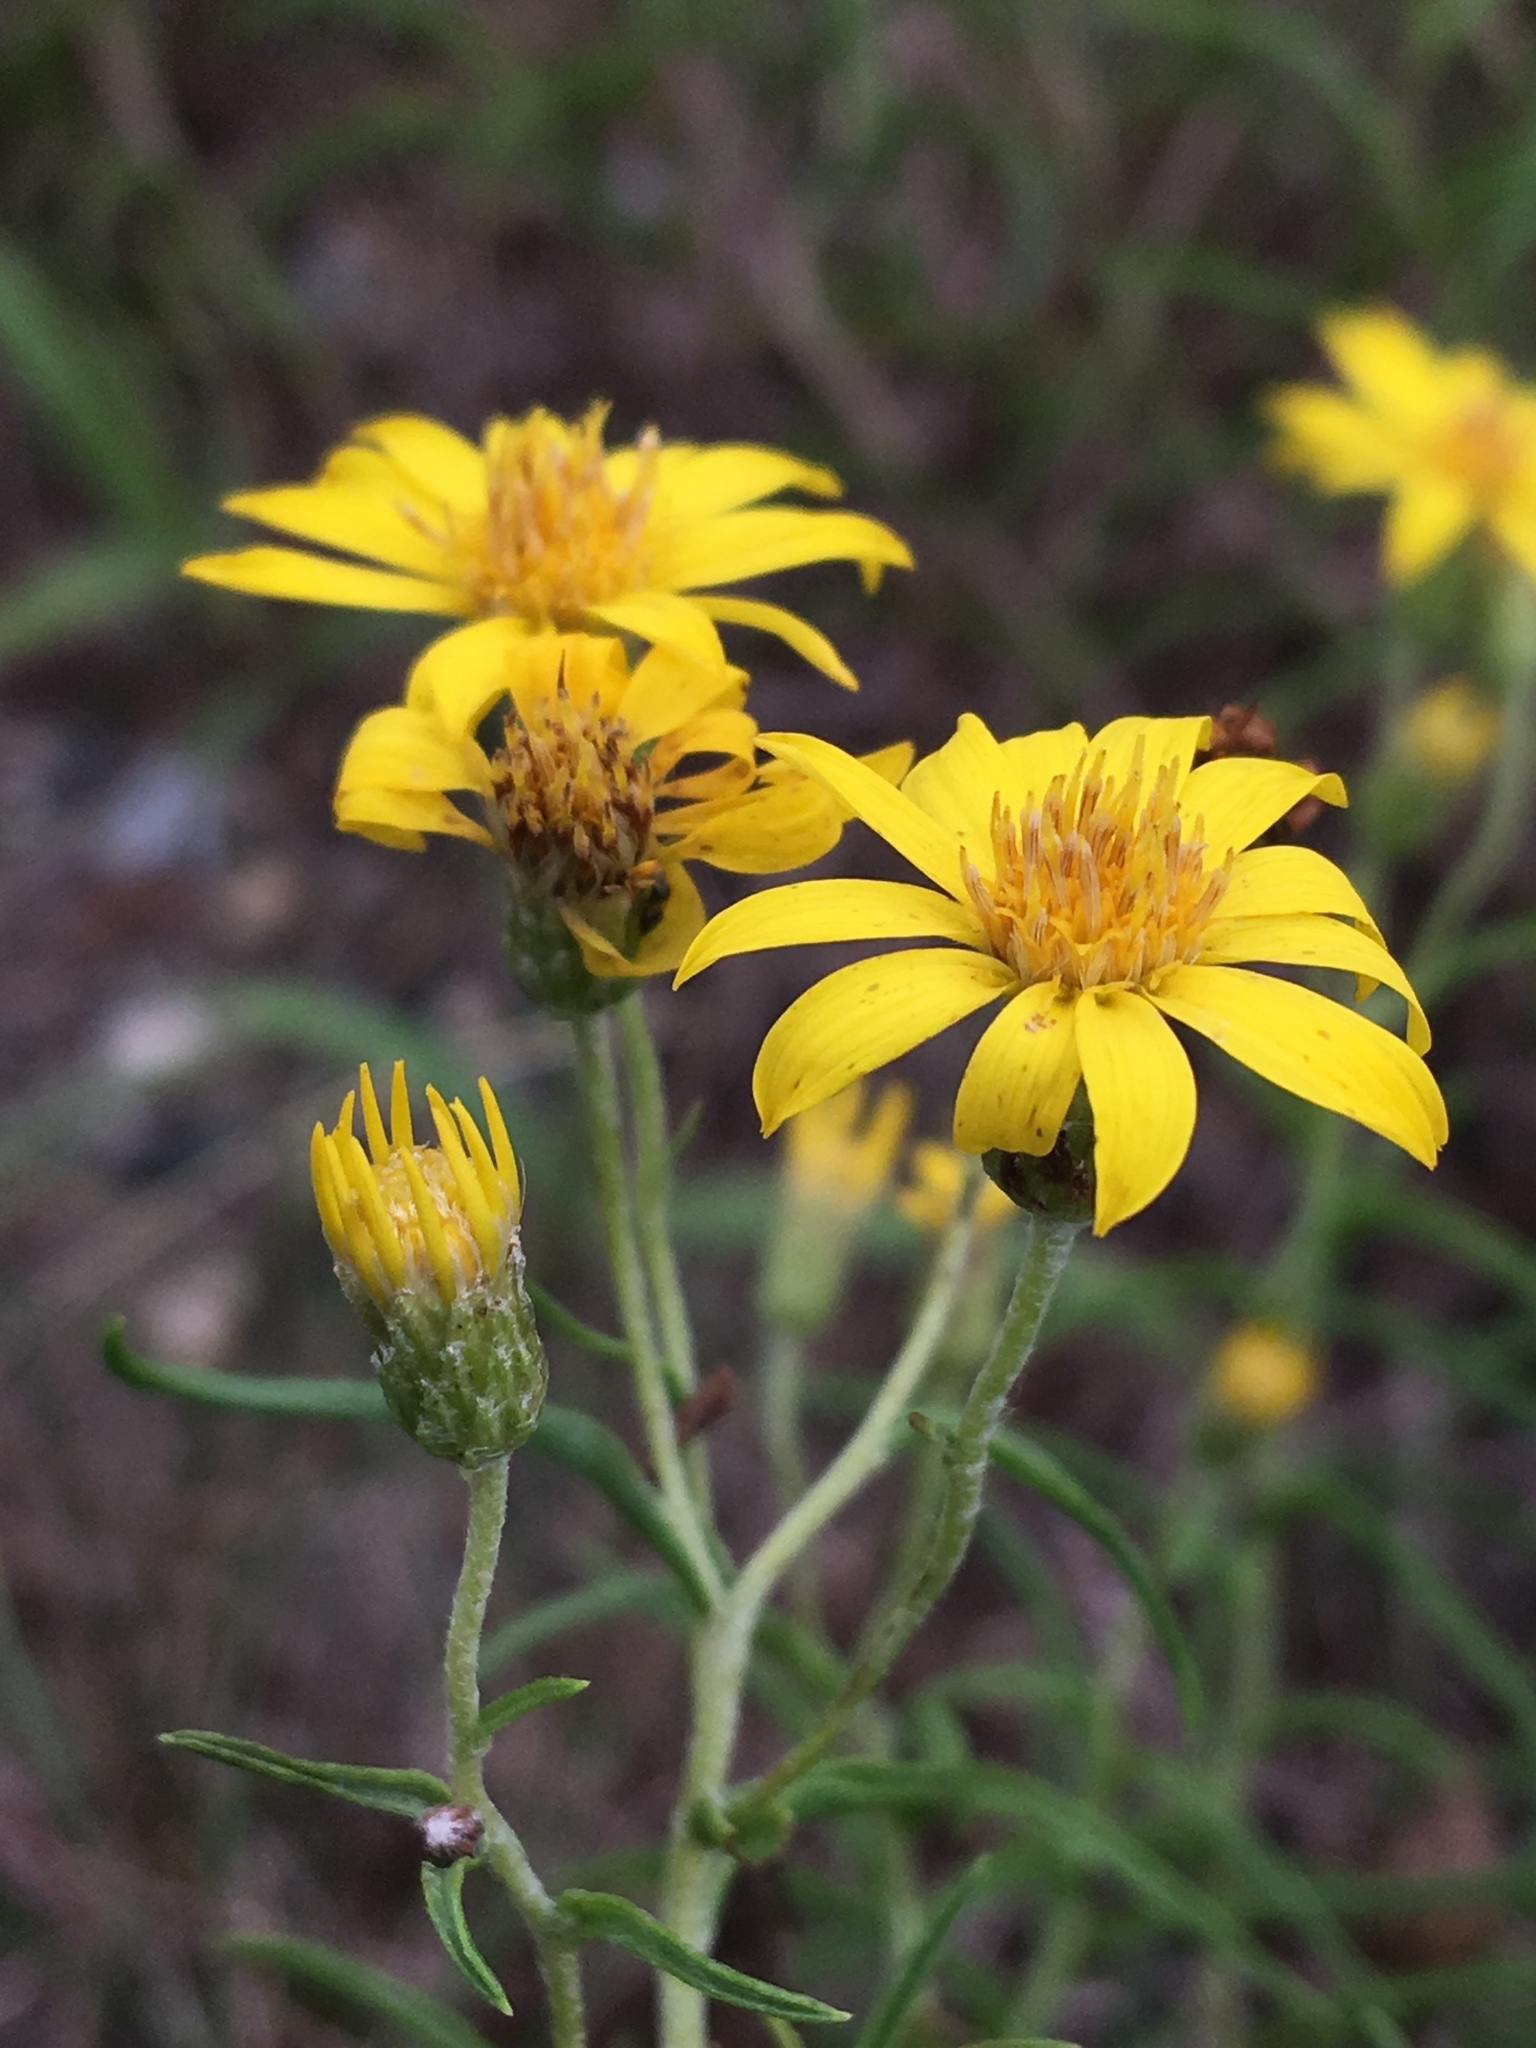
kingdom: Plantae
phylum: Tracheophyta
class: Magnoliopsida
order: Asterales
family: Asteraceae
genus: Pityopsis
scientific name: Pityopsis falcata
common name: Sickle-leaved goldenaster
